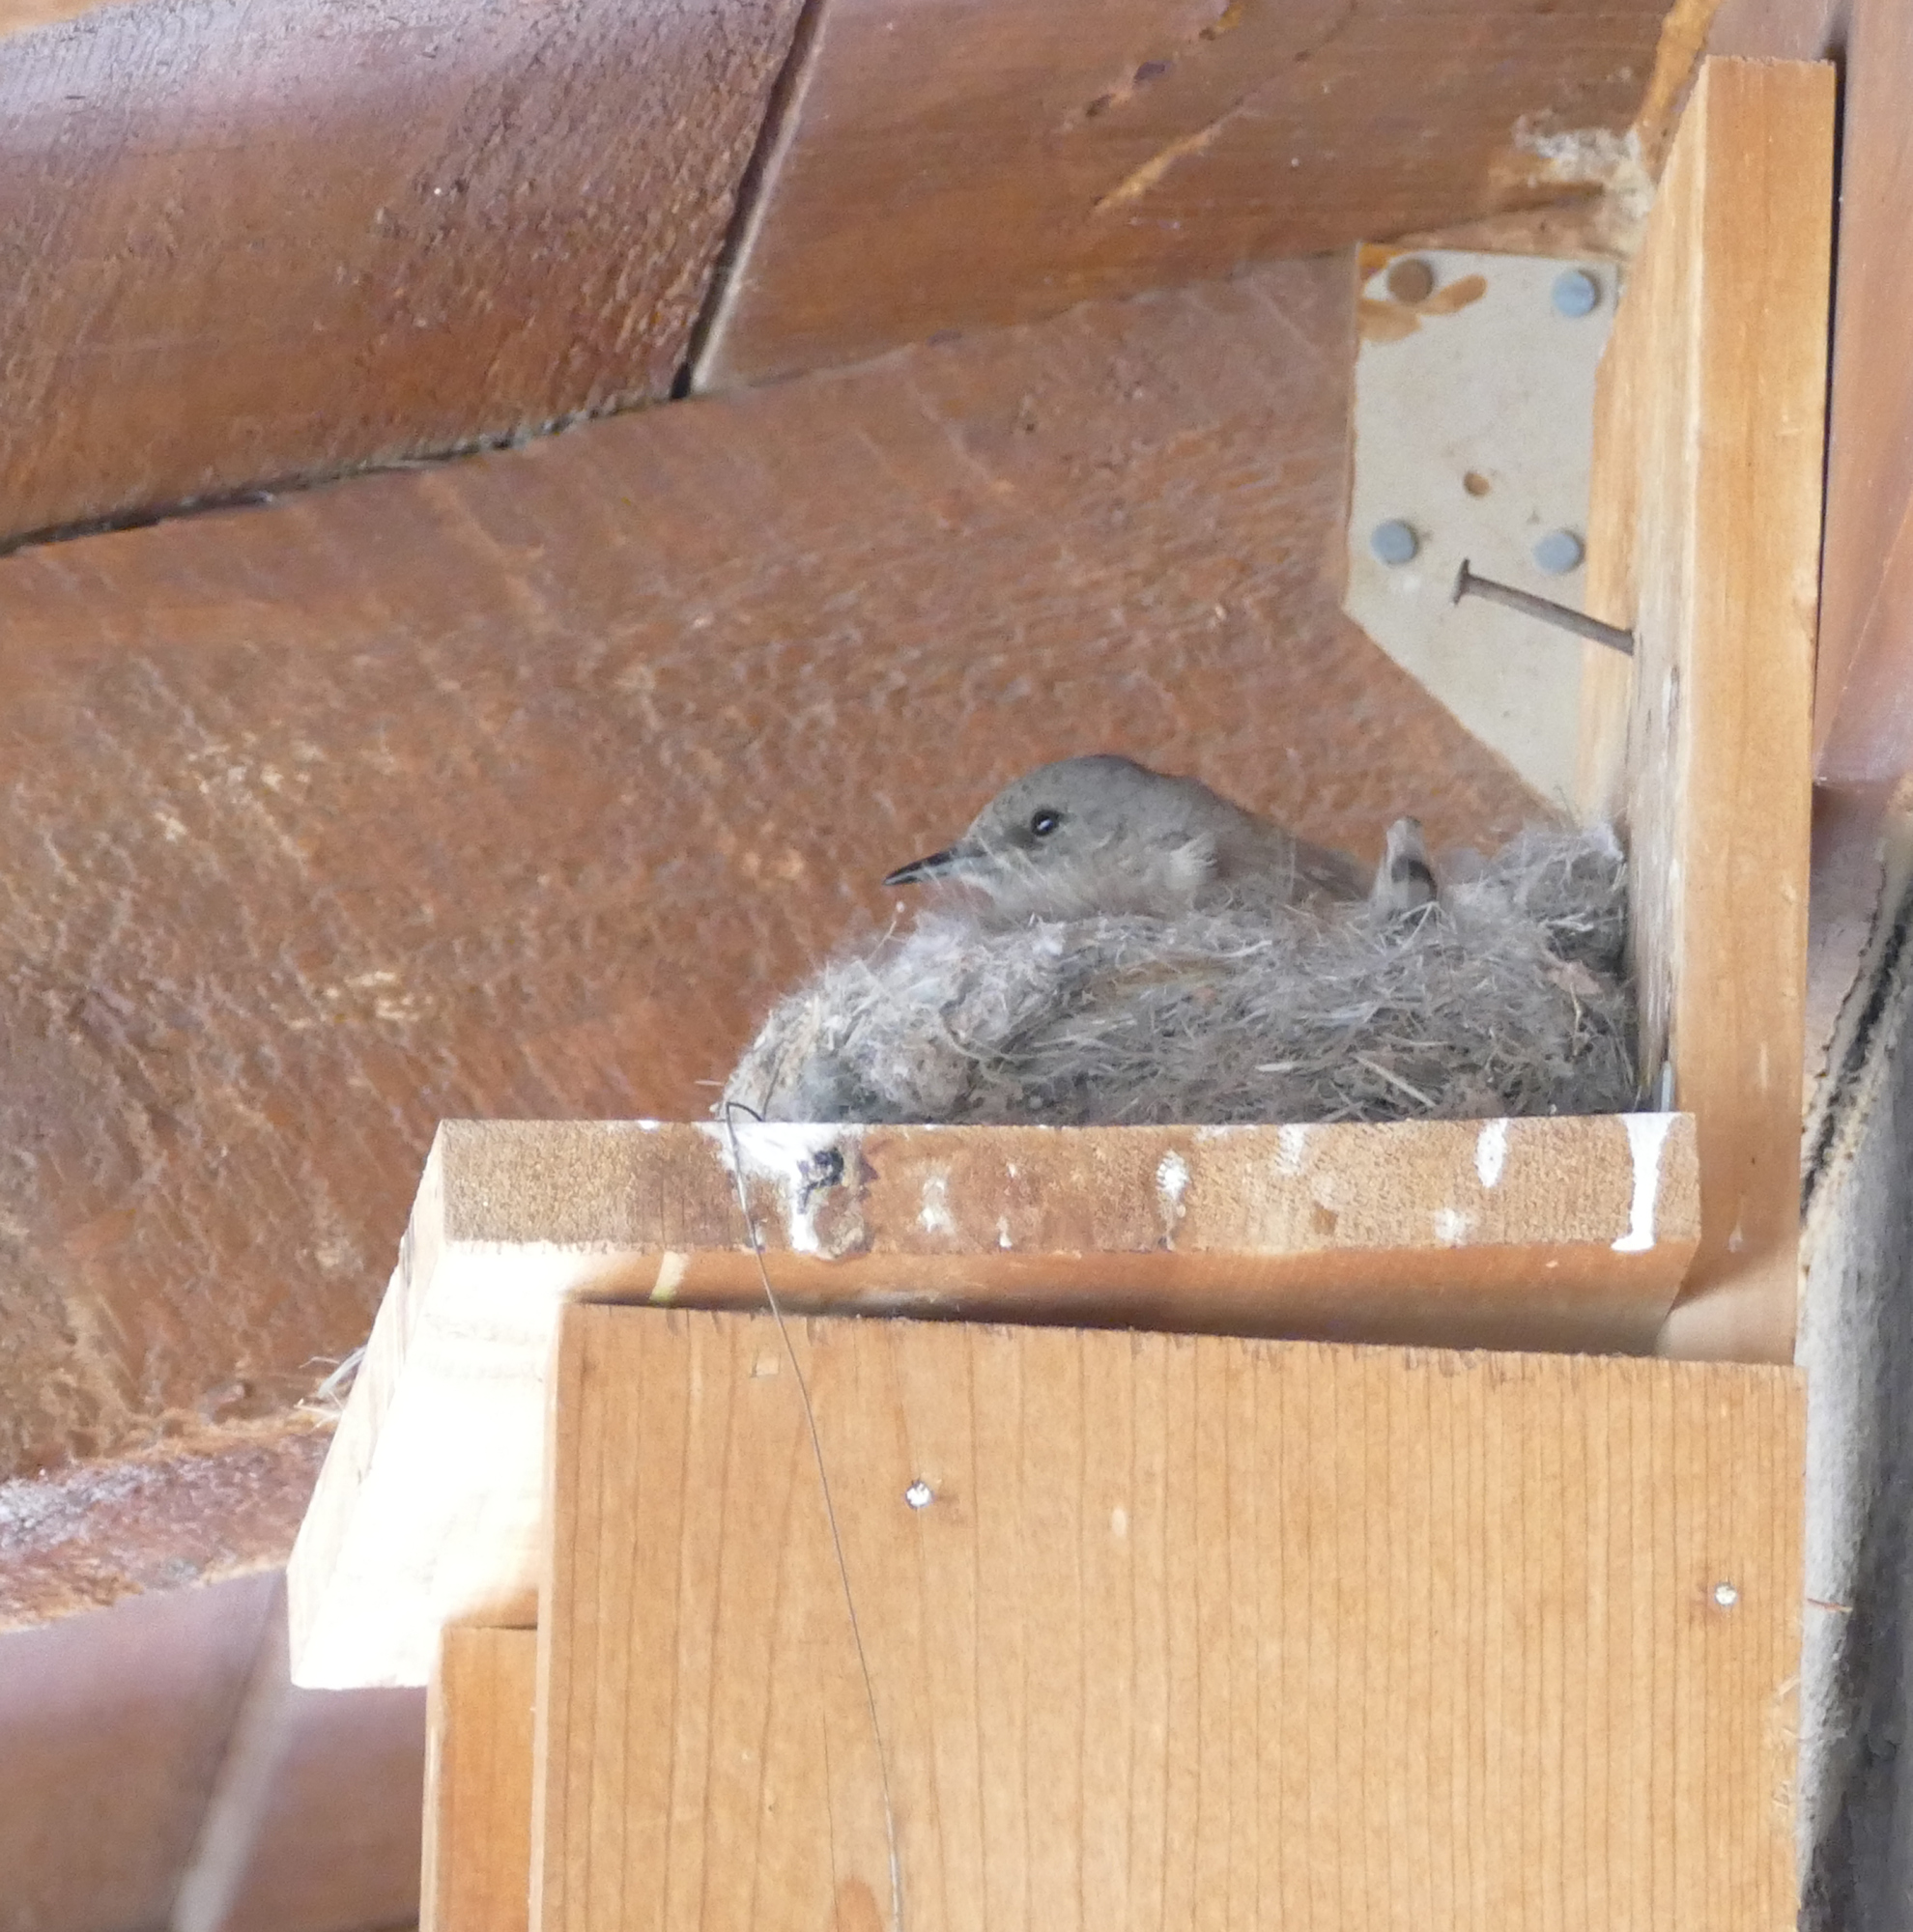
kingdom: Animalia
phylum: Chordata
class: Aves
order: Passeriformes
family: Tyrannidae
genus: Sayornis
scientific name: Sayornis saya
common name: Say's phoebe
